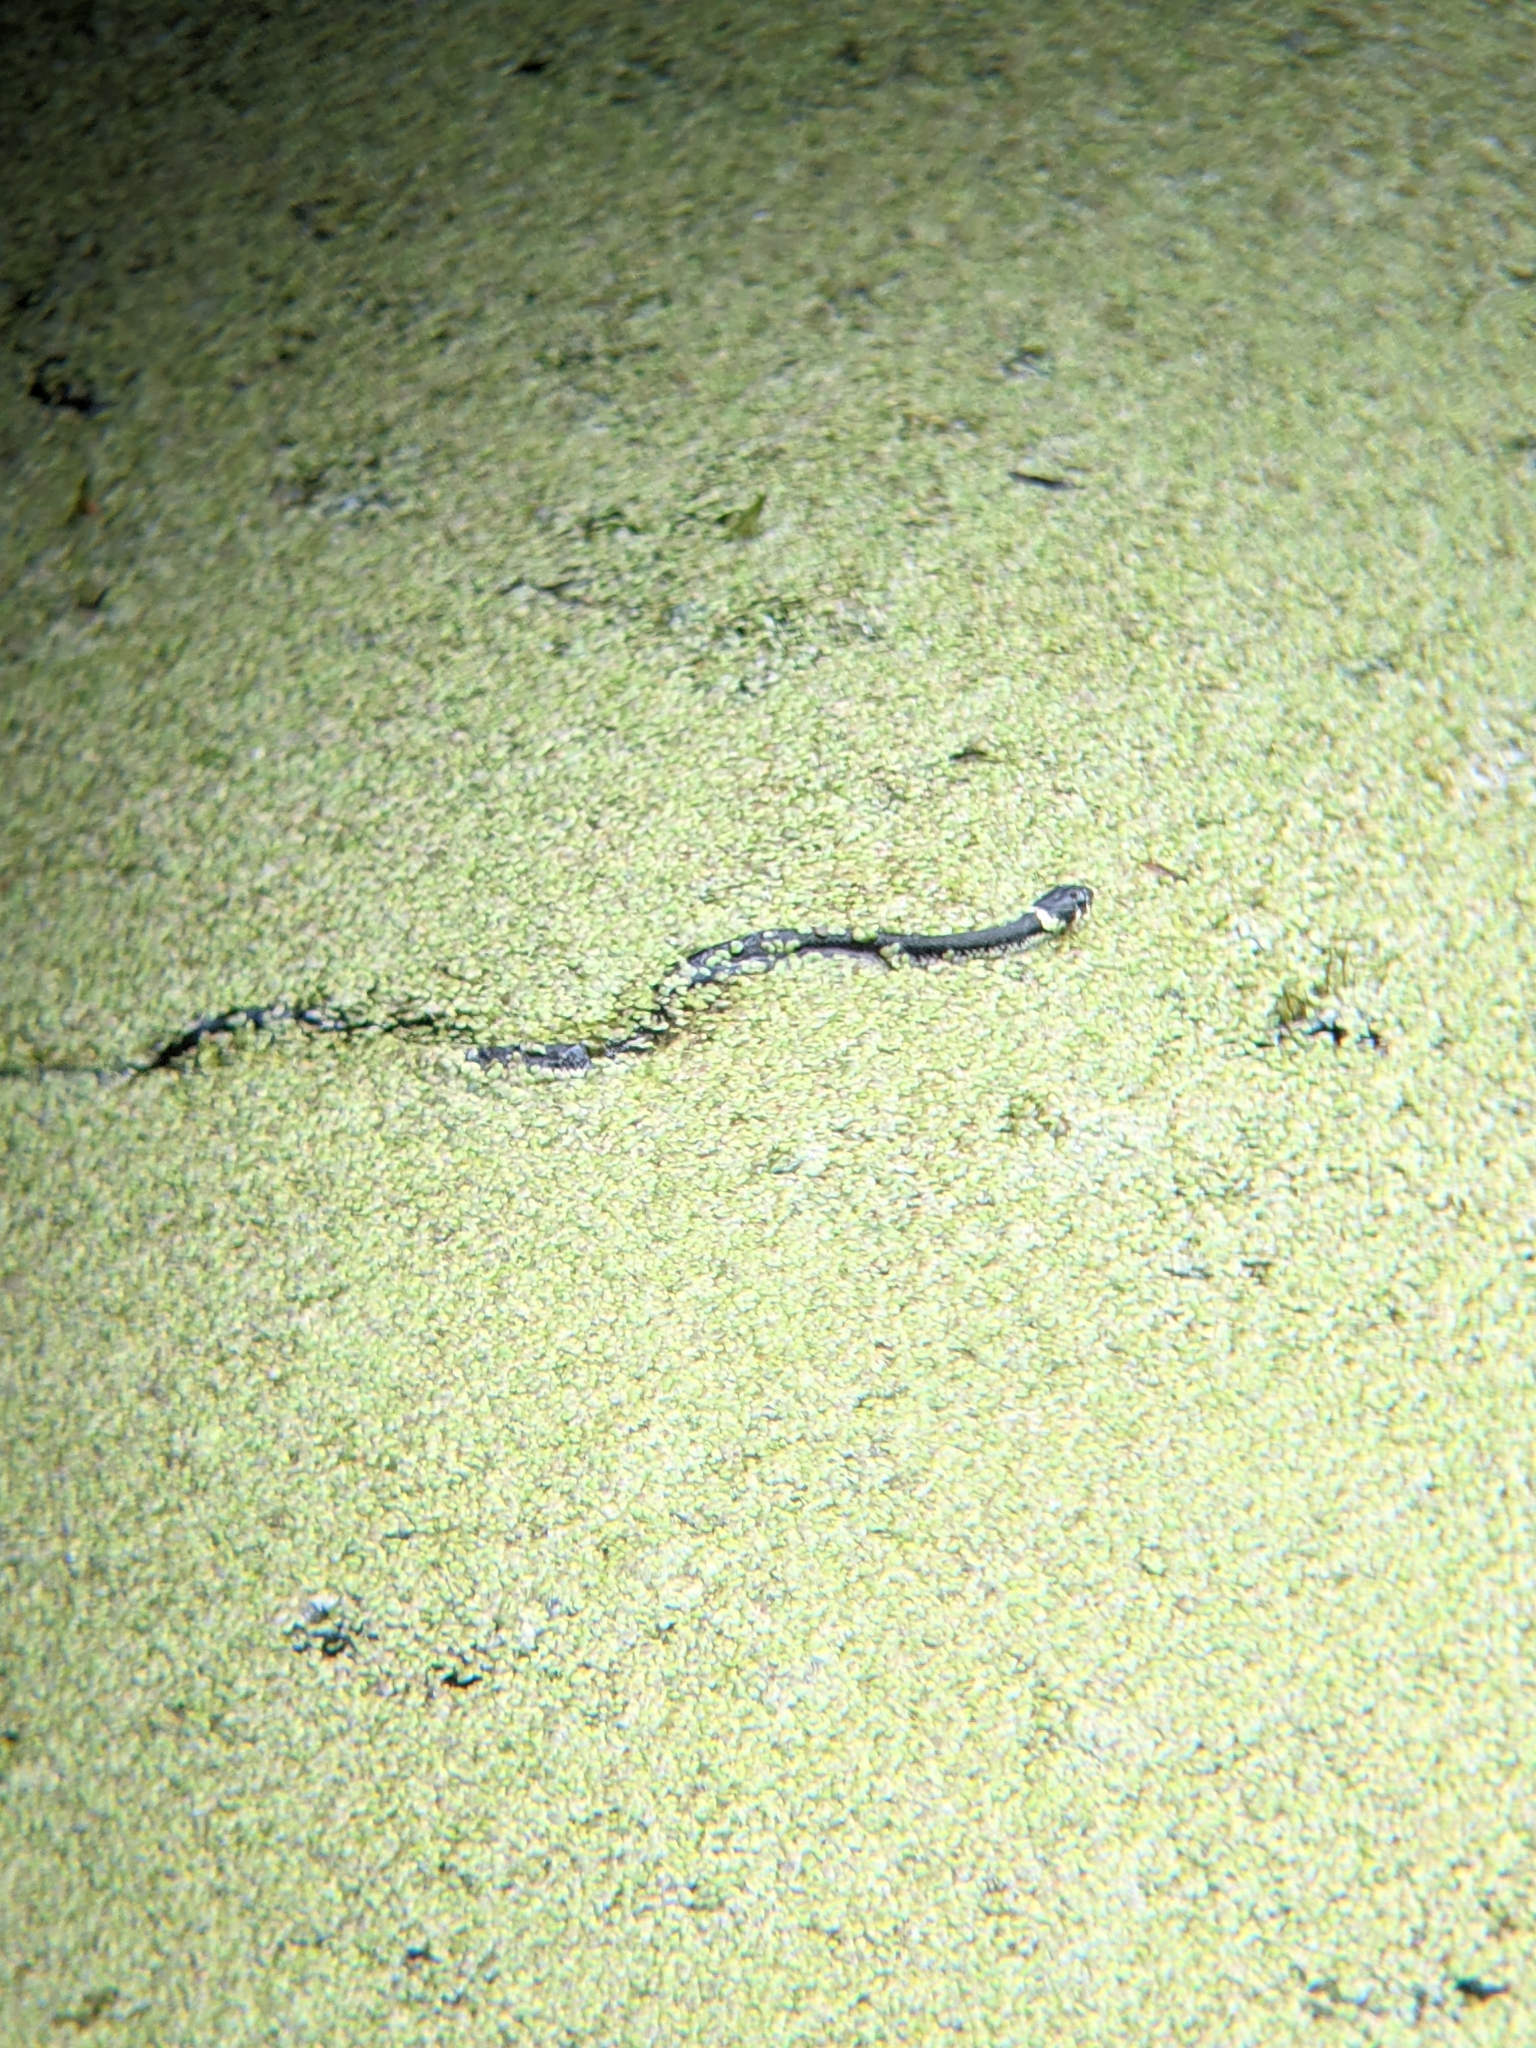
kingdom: Animalia
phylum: Chordata
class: Squamata
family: Colubridae
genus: Natrix
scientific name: Natrix natrix
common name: Grass snake
